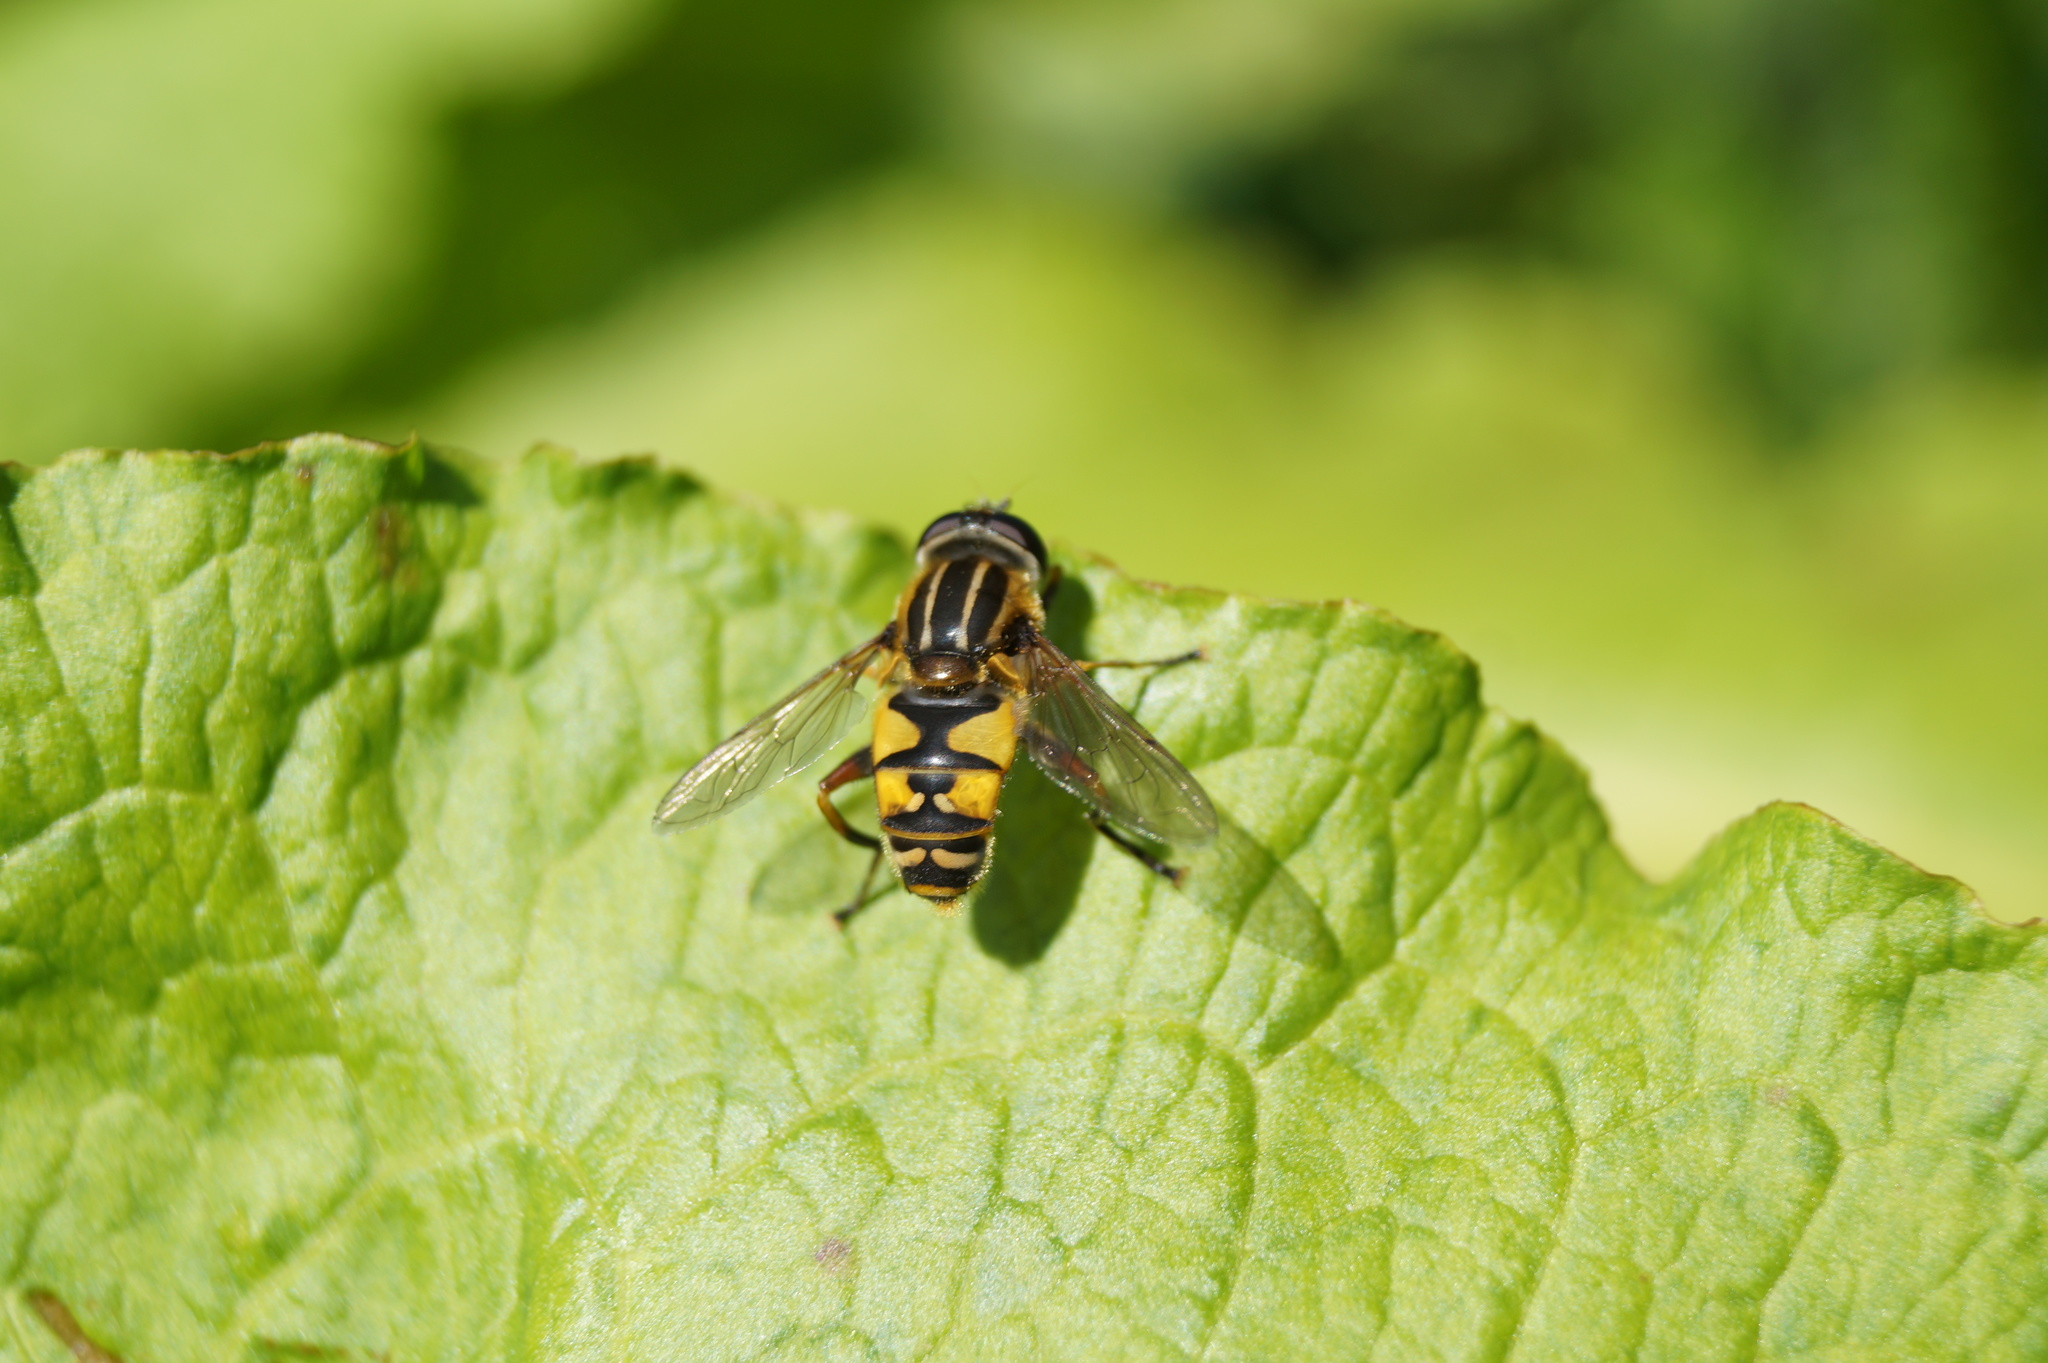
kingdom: Animalia
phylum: Arthropoda
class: Insecta
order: Diptera
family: Syrphidae
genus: Helophilus
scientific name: Helophilus pendulus
